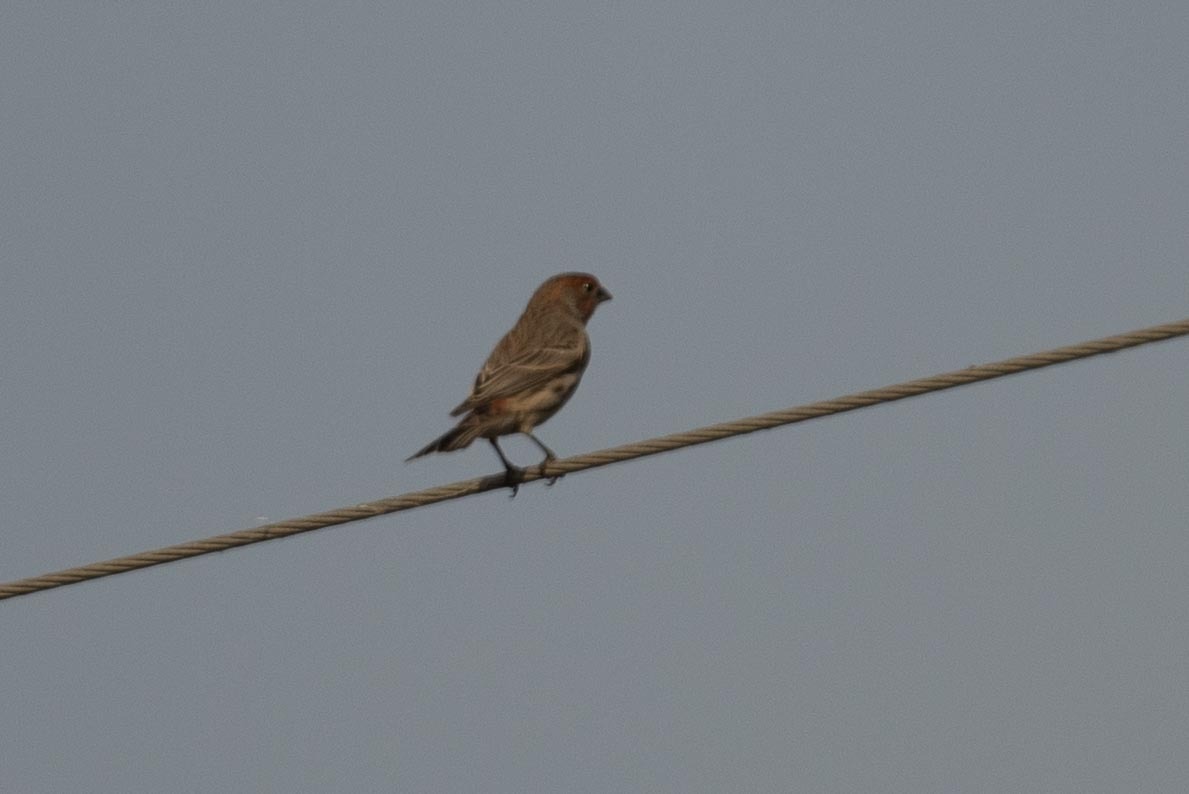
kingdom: Animalia
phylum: Chordata
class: Aves
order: Passeriformes
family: Fringillidae
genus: Haemorhous
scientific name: Haemorhous mexicanus
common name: House finch
